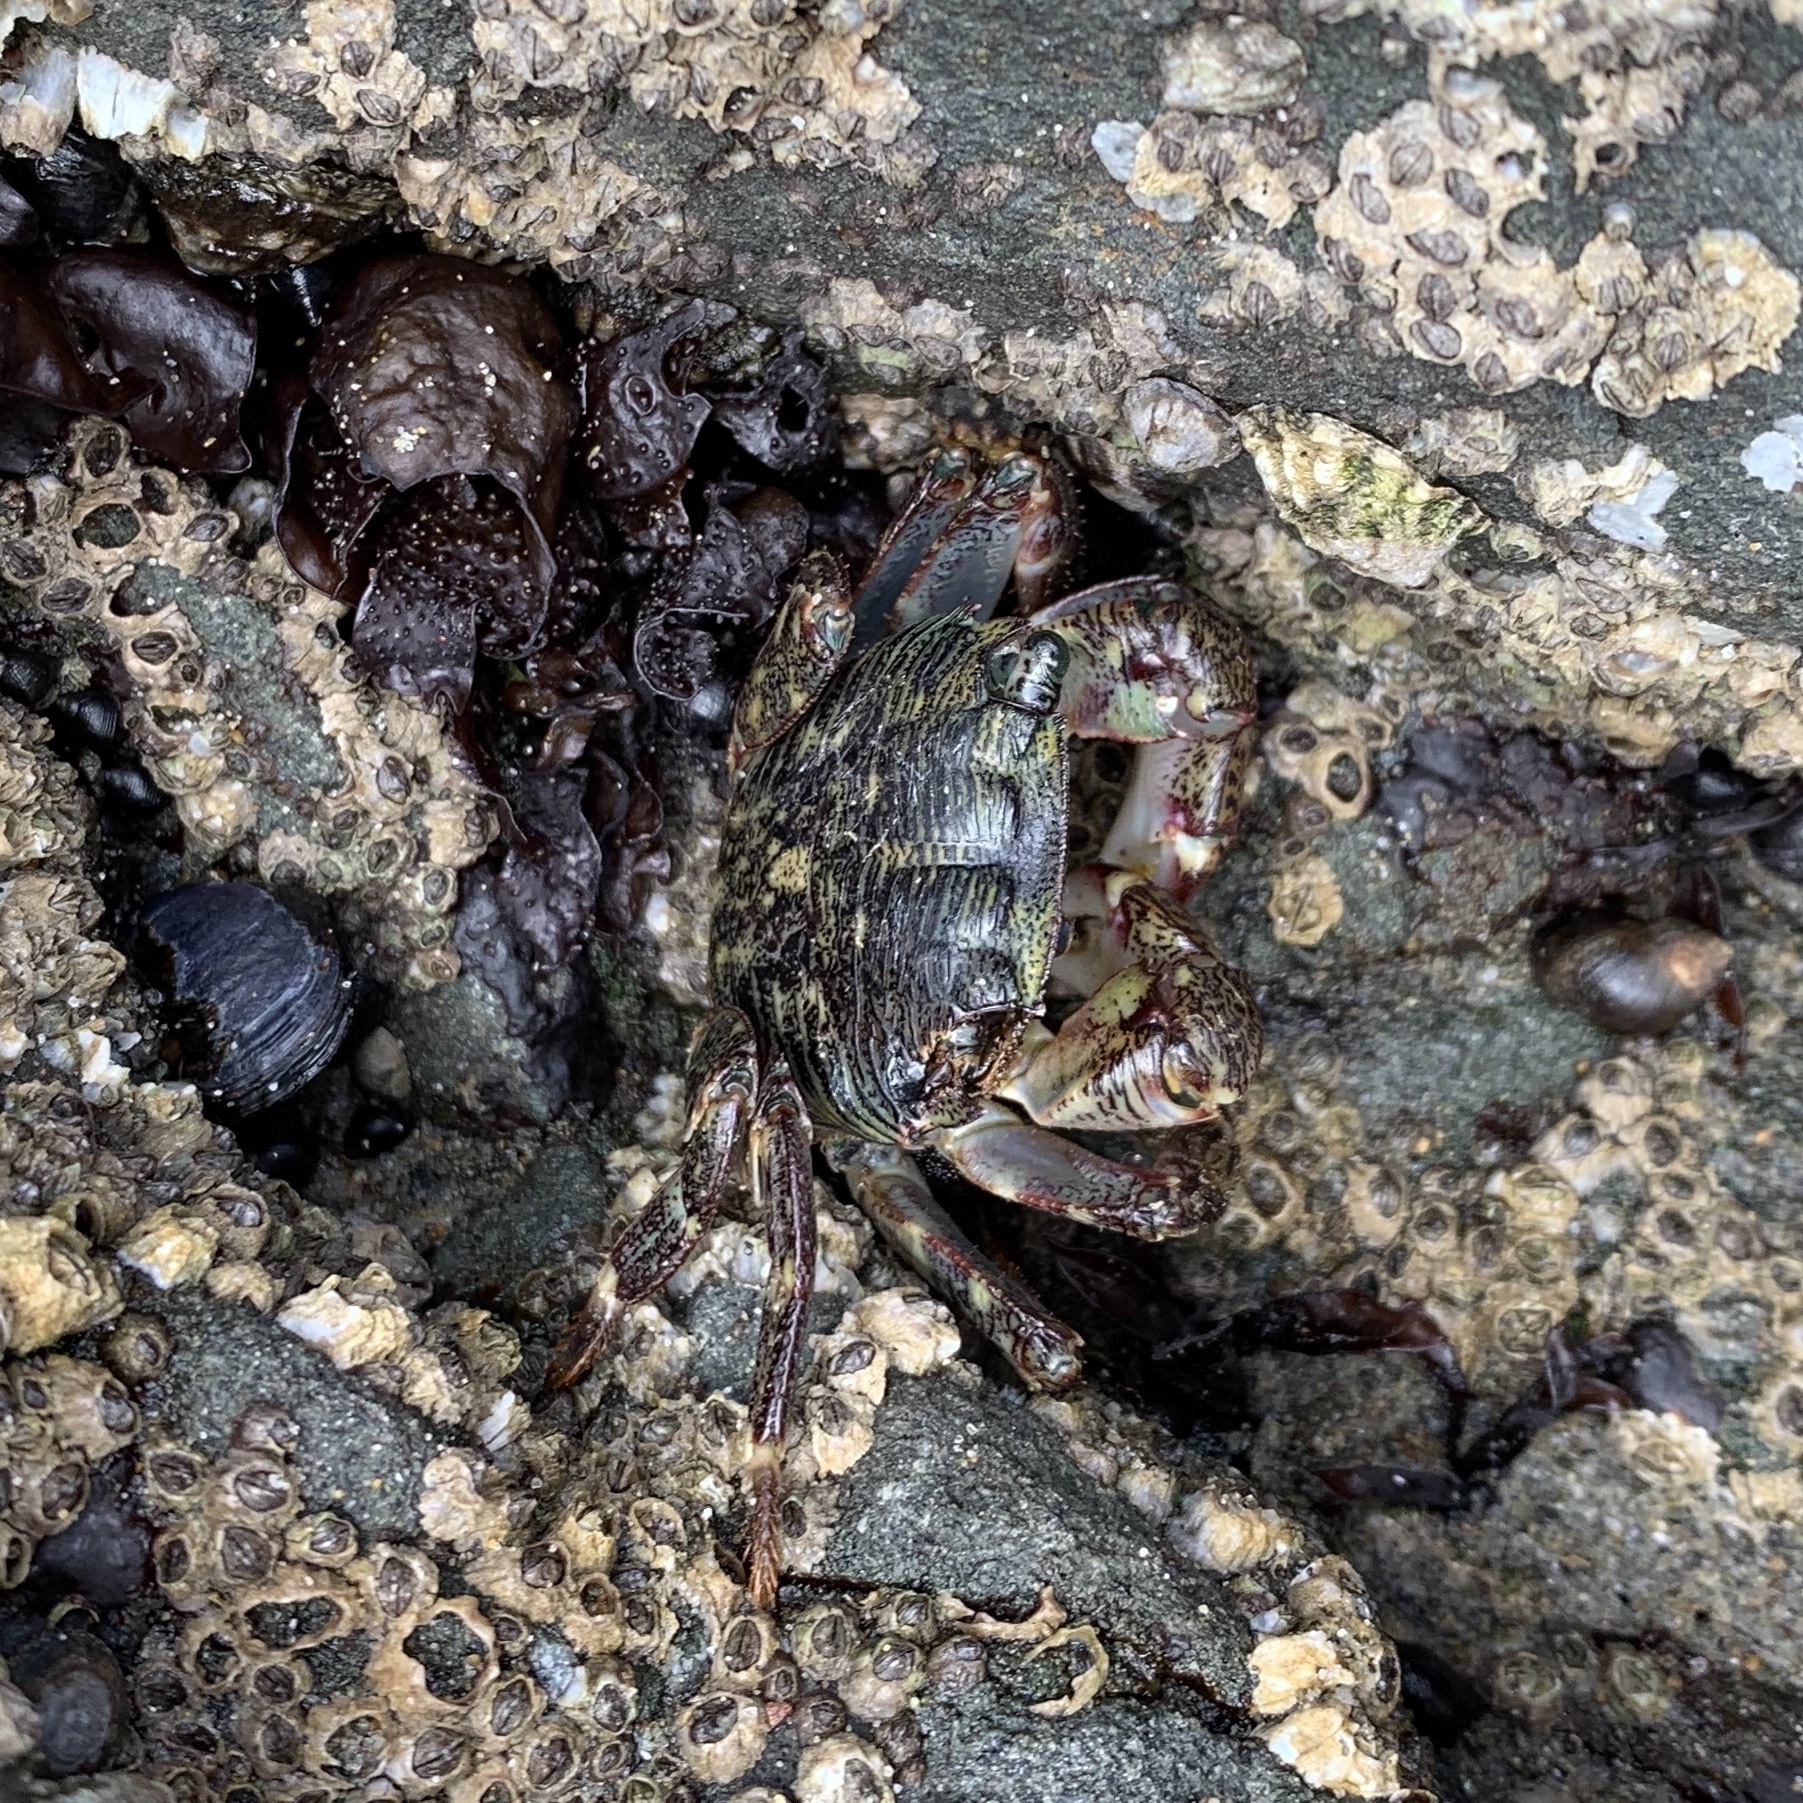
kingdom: Animalia
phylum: Arthropoda
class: Malacostraca
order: Decapoda
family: Grapsidae
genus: Pachygrapsus
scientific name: Pachygrapsus crassipes
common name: Striped shore crab
